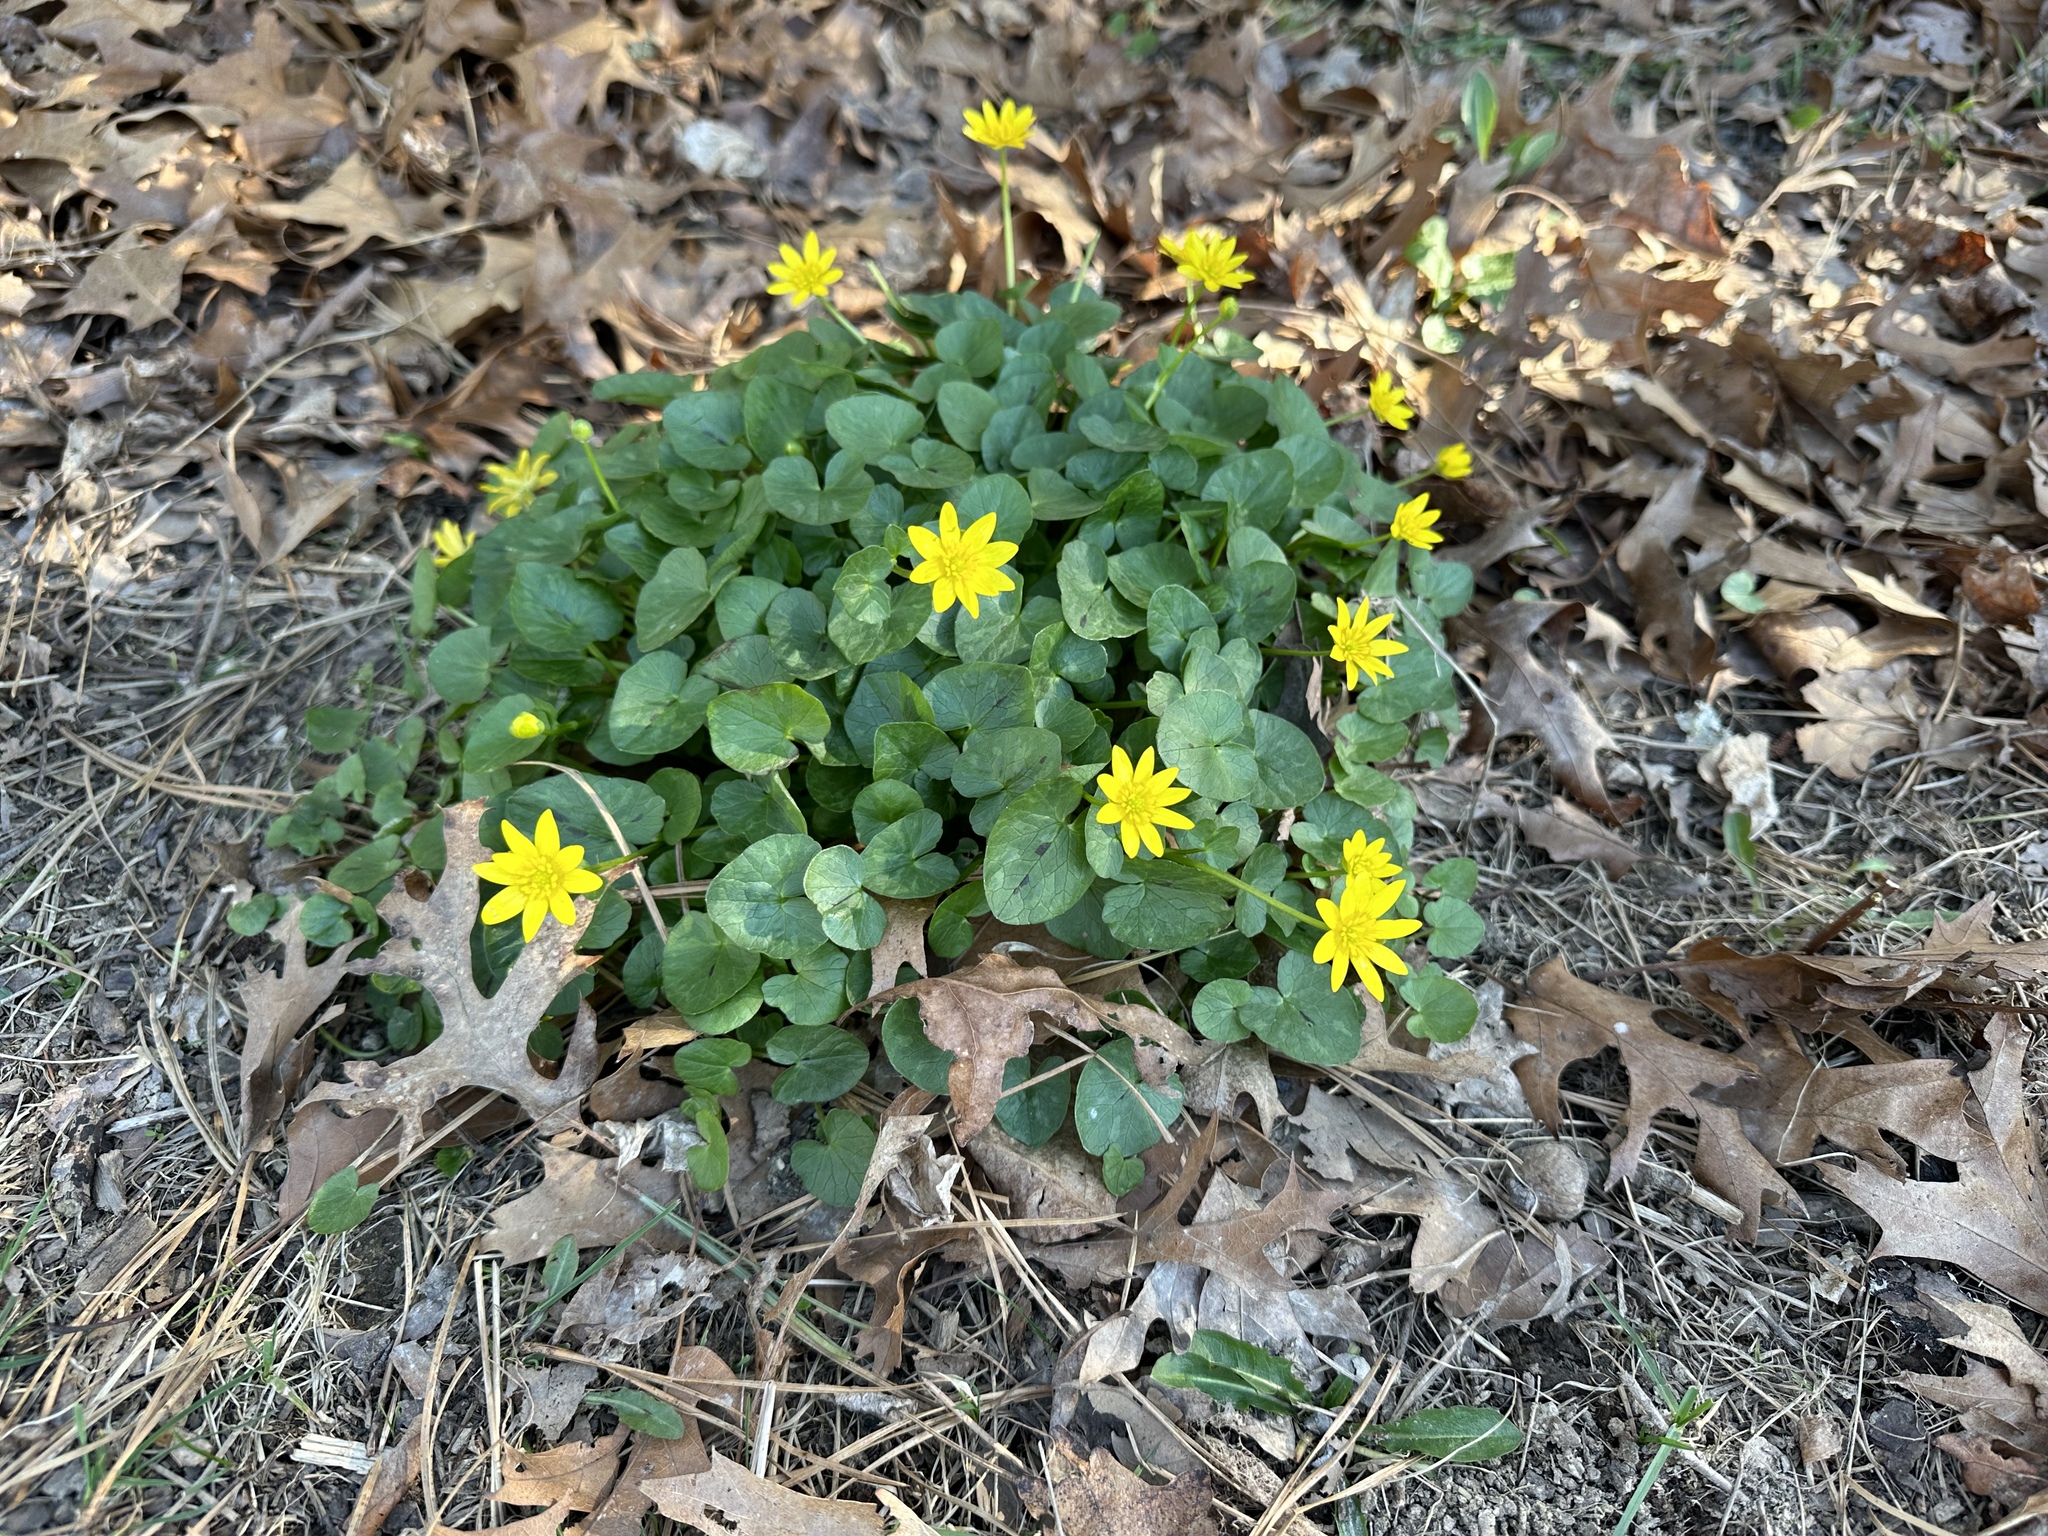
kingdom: Plantae
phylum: Tracheophyta
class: Magnoliopsida
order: Ranunculales
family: Ranunculaceae
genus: Ficaria
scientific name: Ficaria verna
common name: Lesser celandine
